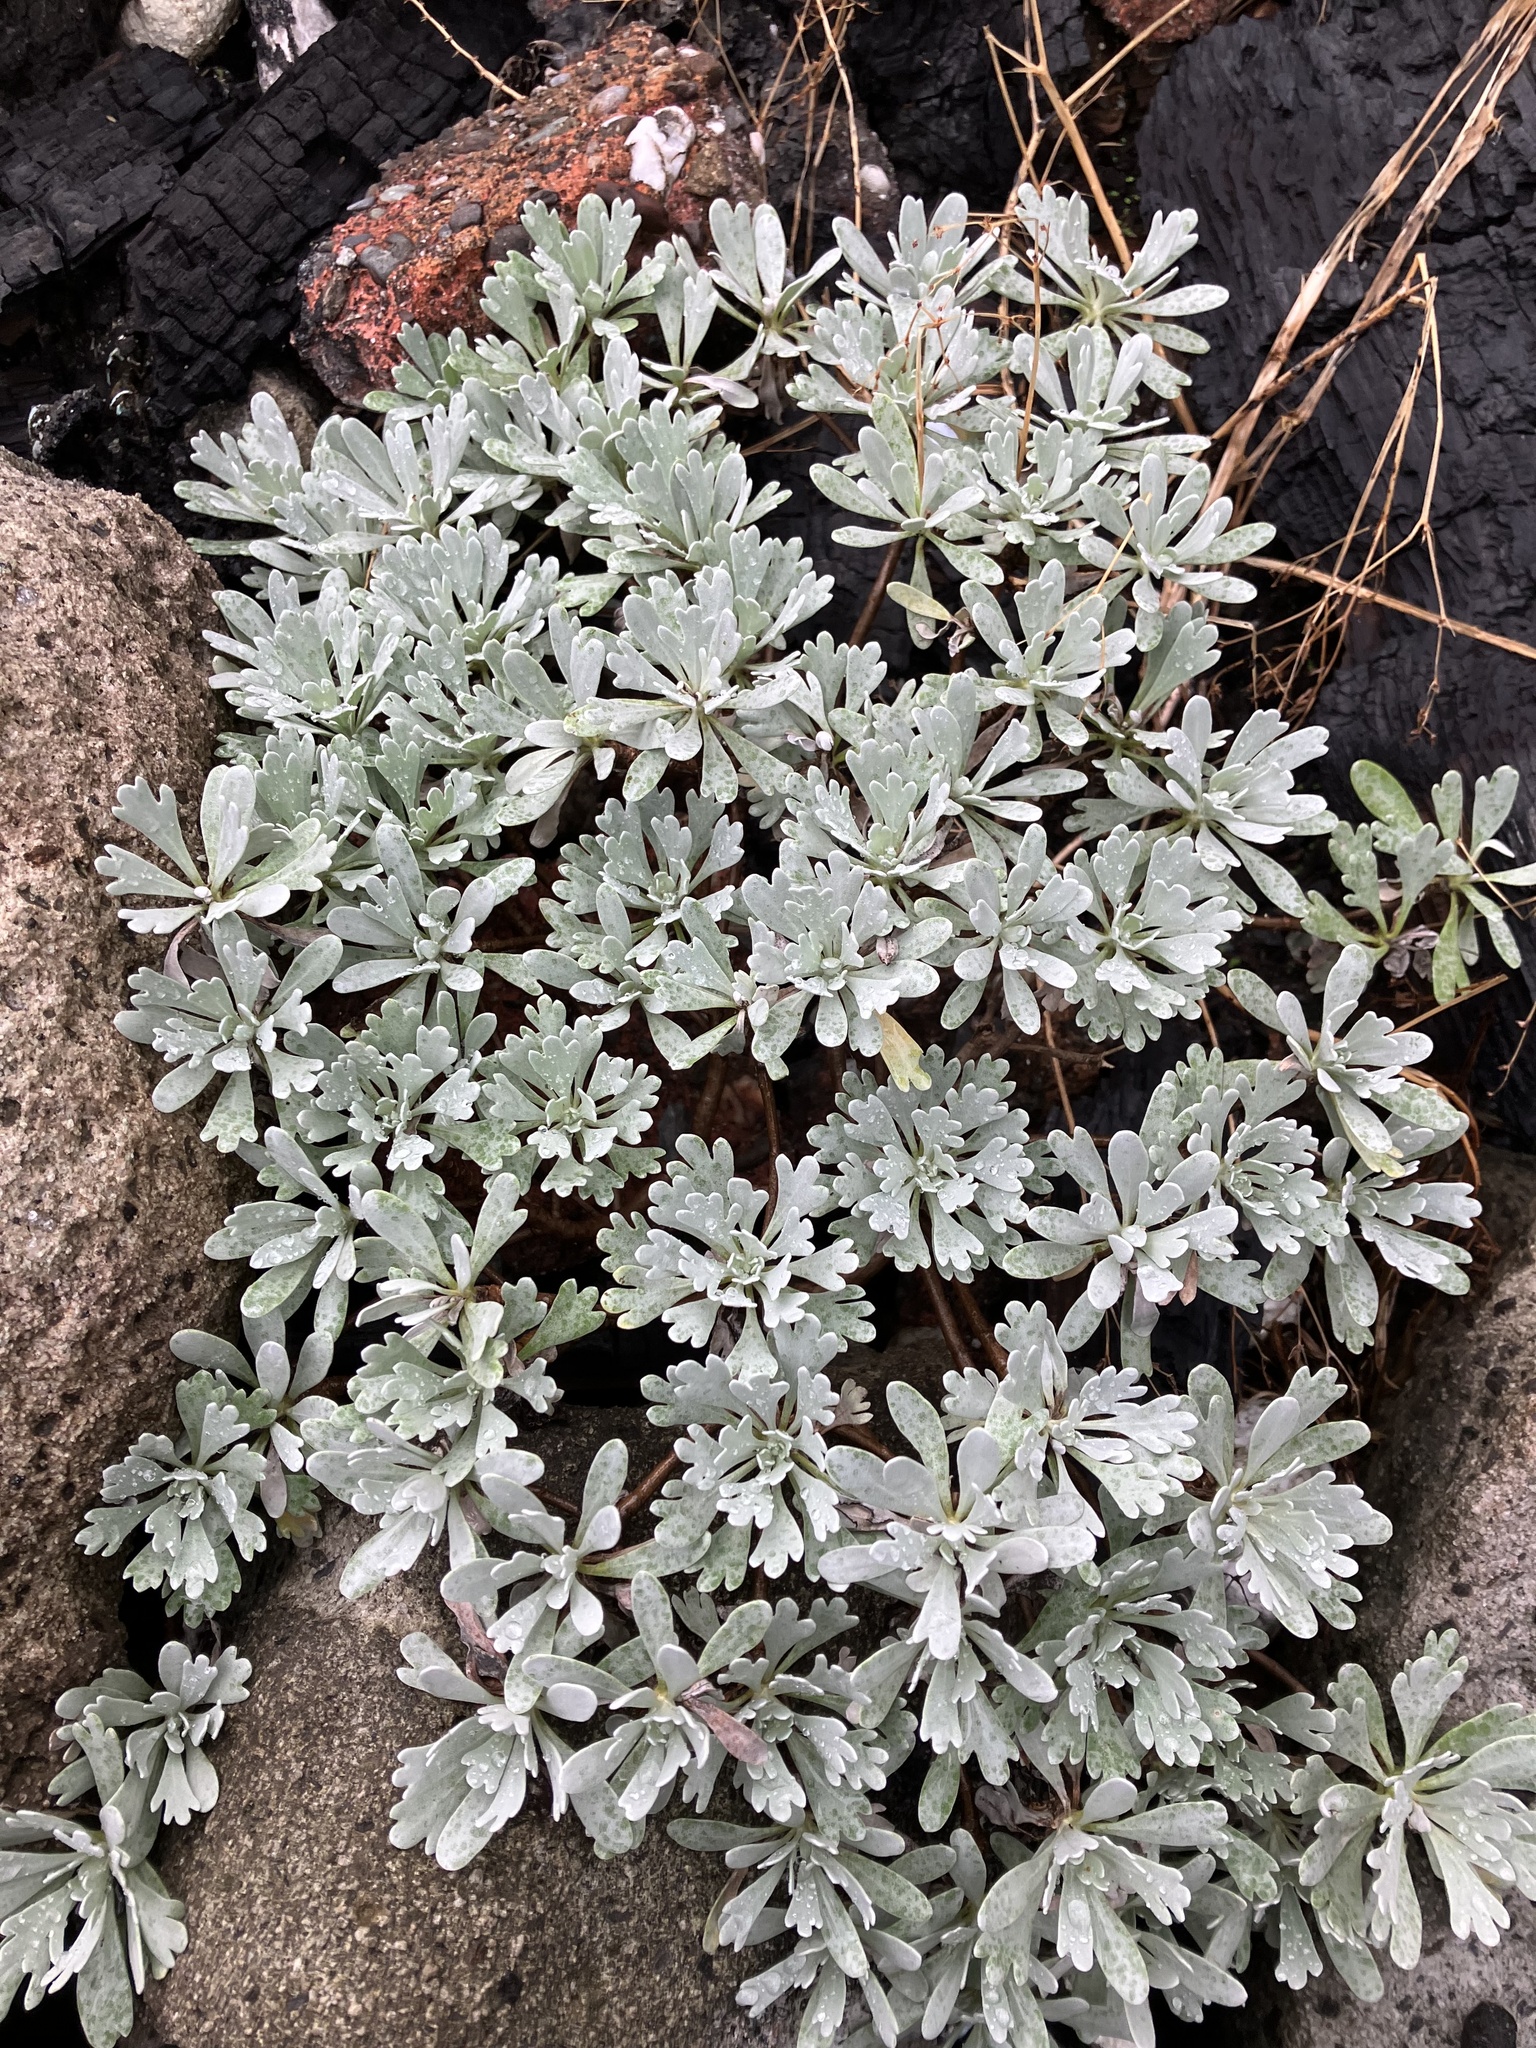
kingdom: Plantae
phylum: Tracheophyta
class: Magnoliopsida
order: Asterales
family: Asteraceae
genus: Crossostephium
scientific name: Crossostephium chinense
